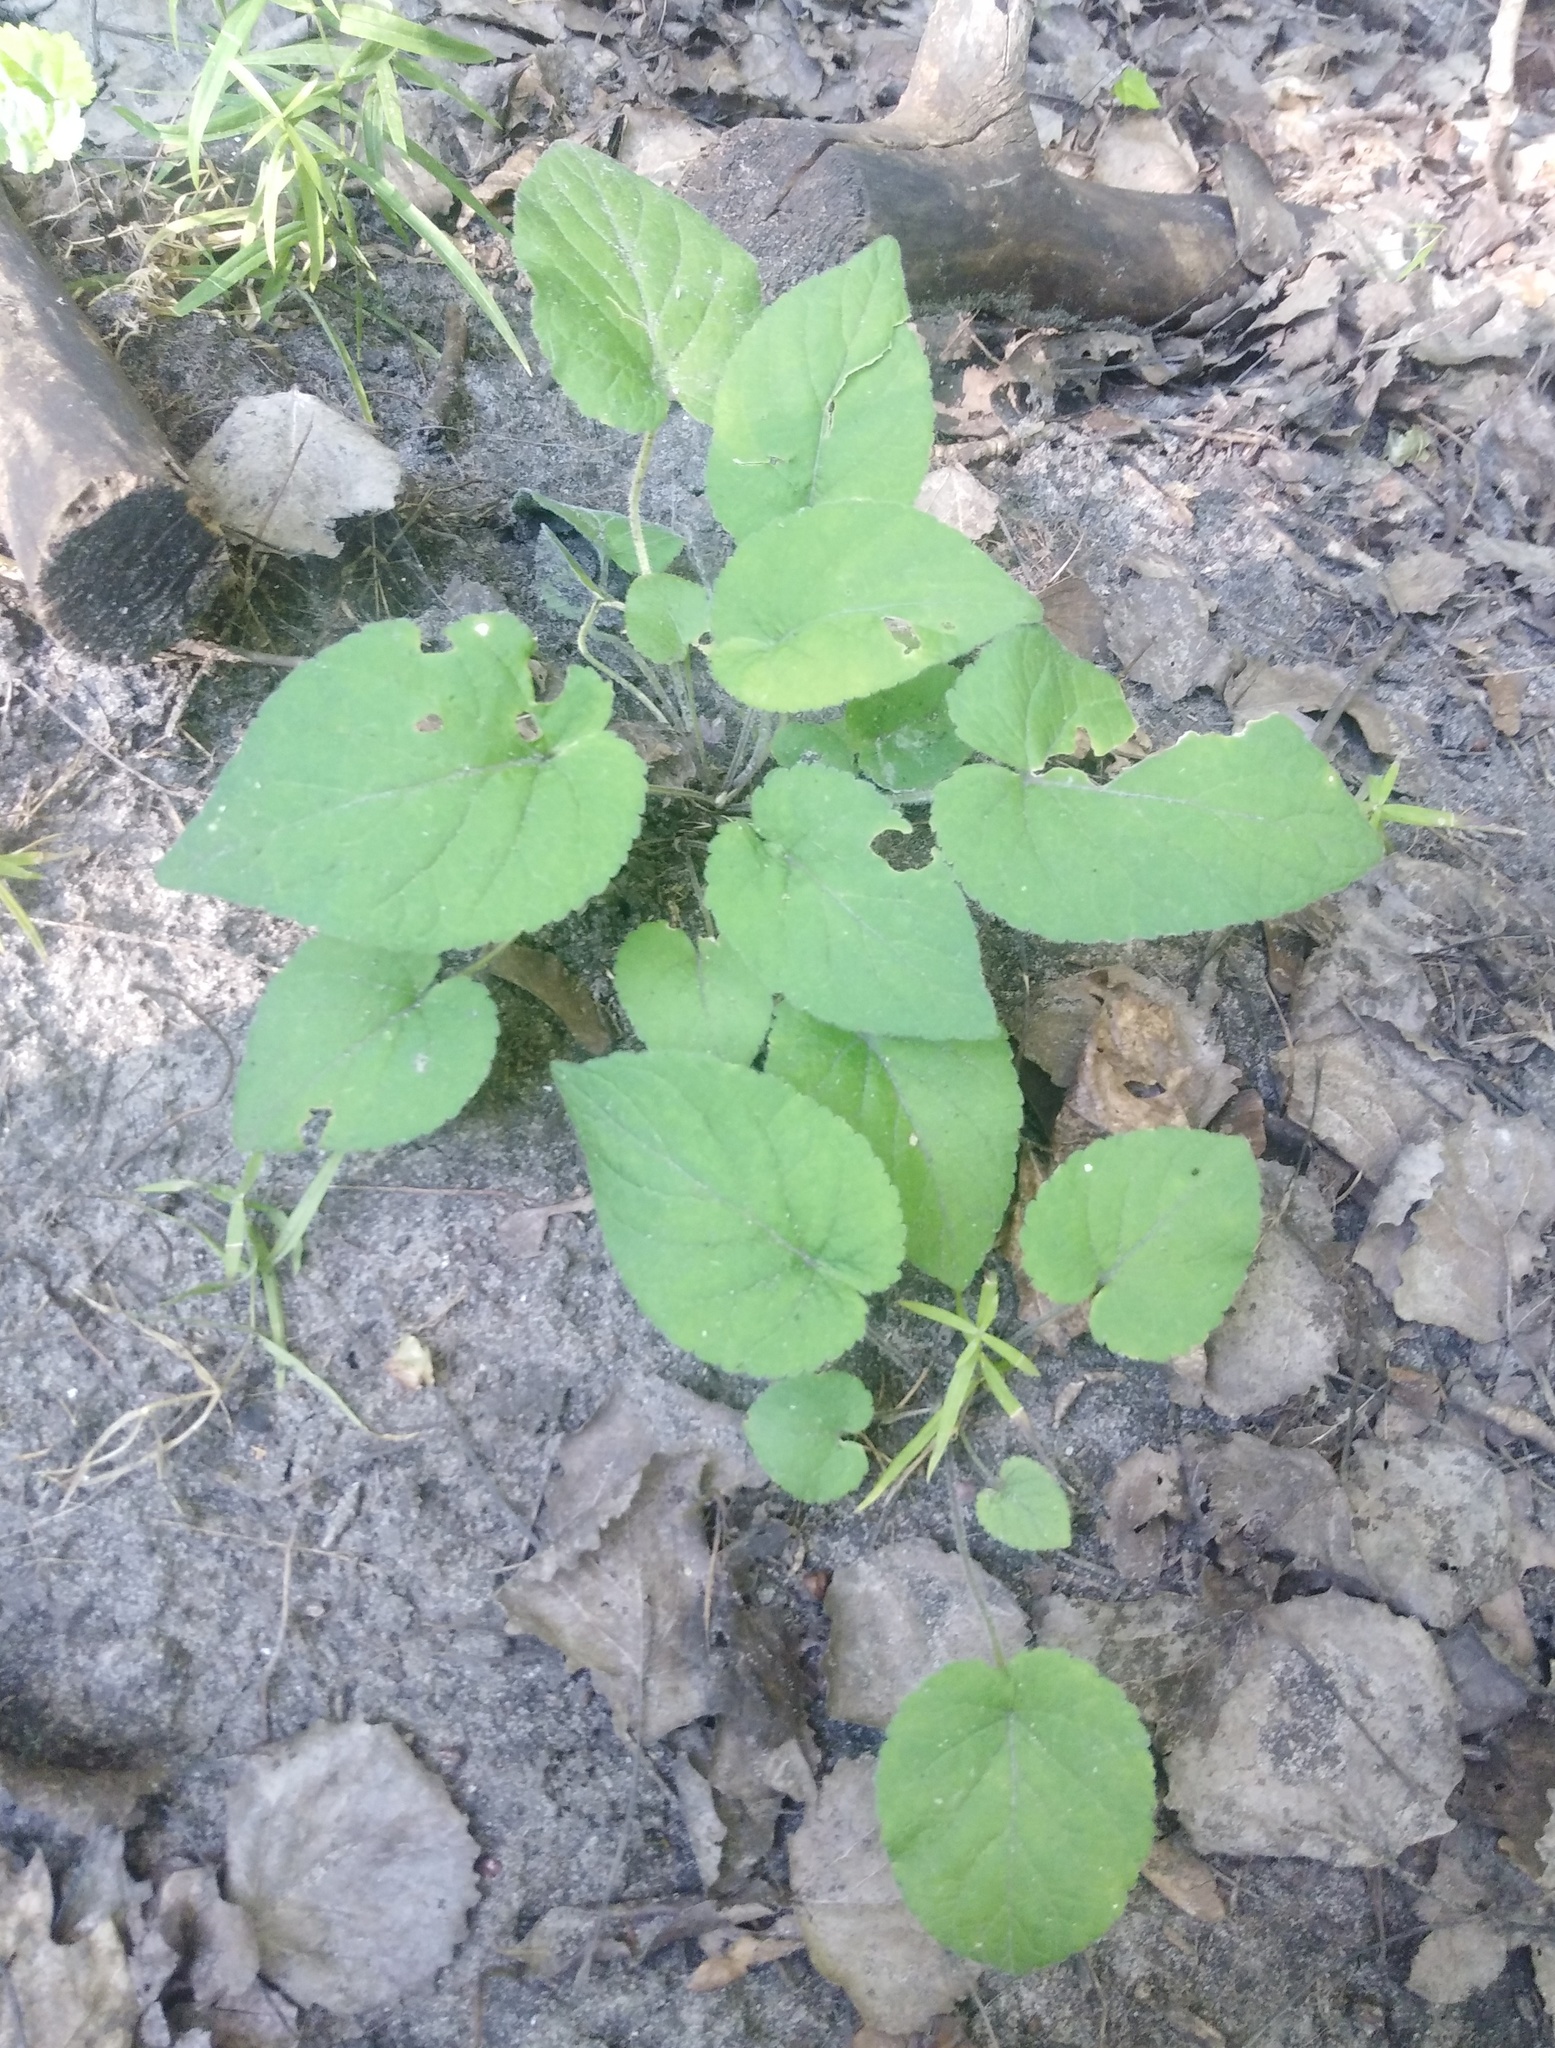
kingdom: Plantae
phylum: Tracheophyta
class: Magnoliopsida
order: Malpighiales
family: Violaceae
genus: Viola
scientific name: Viola collina
